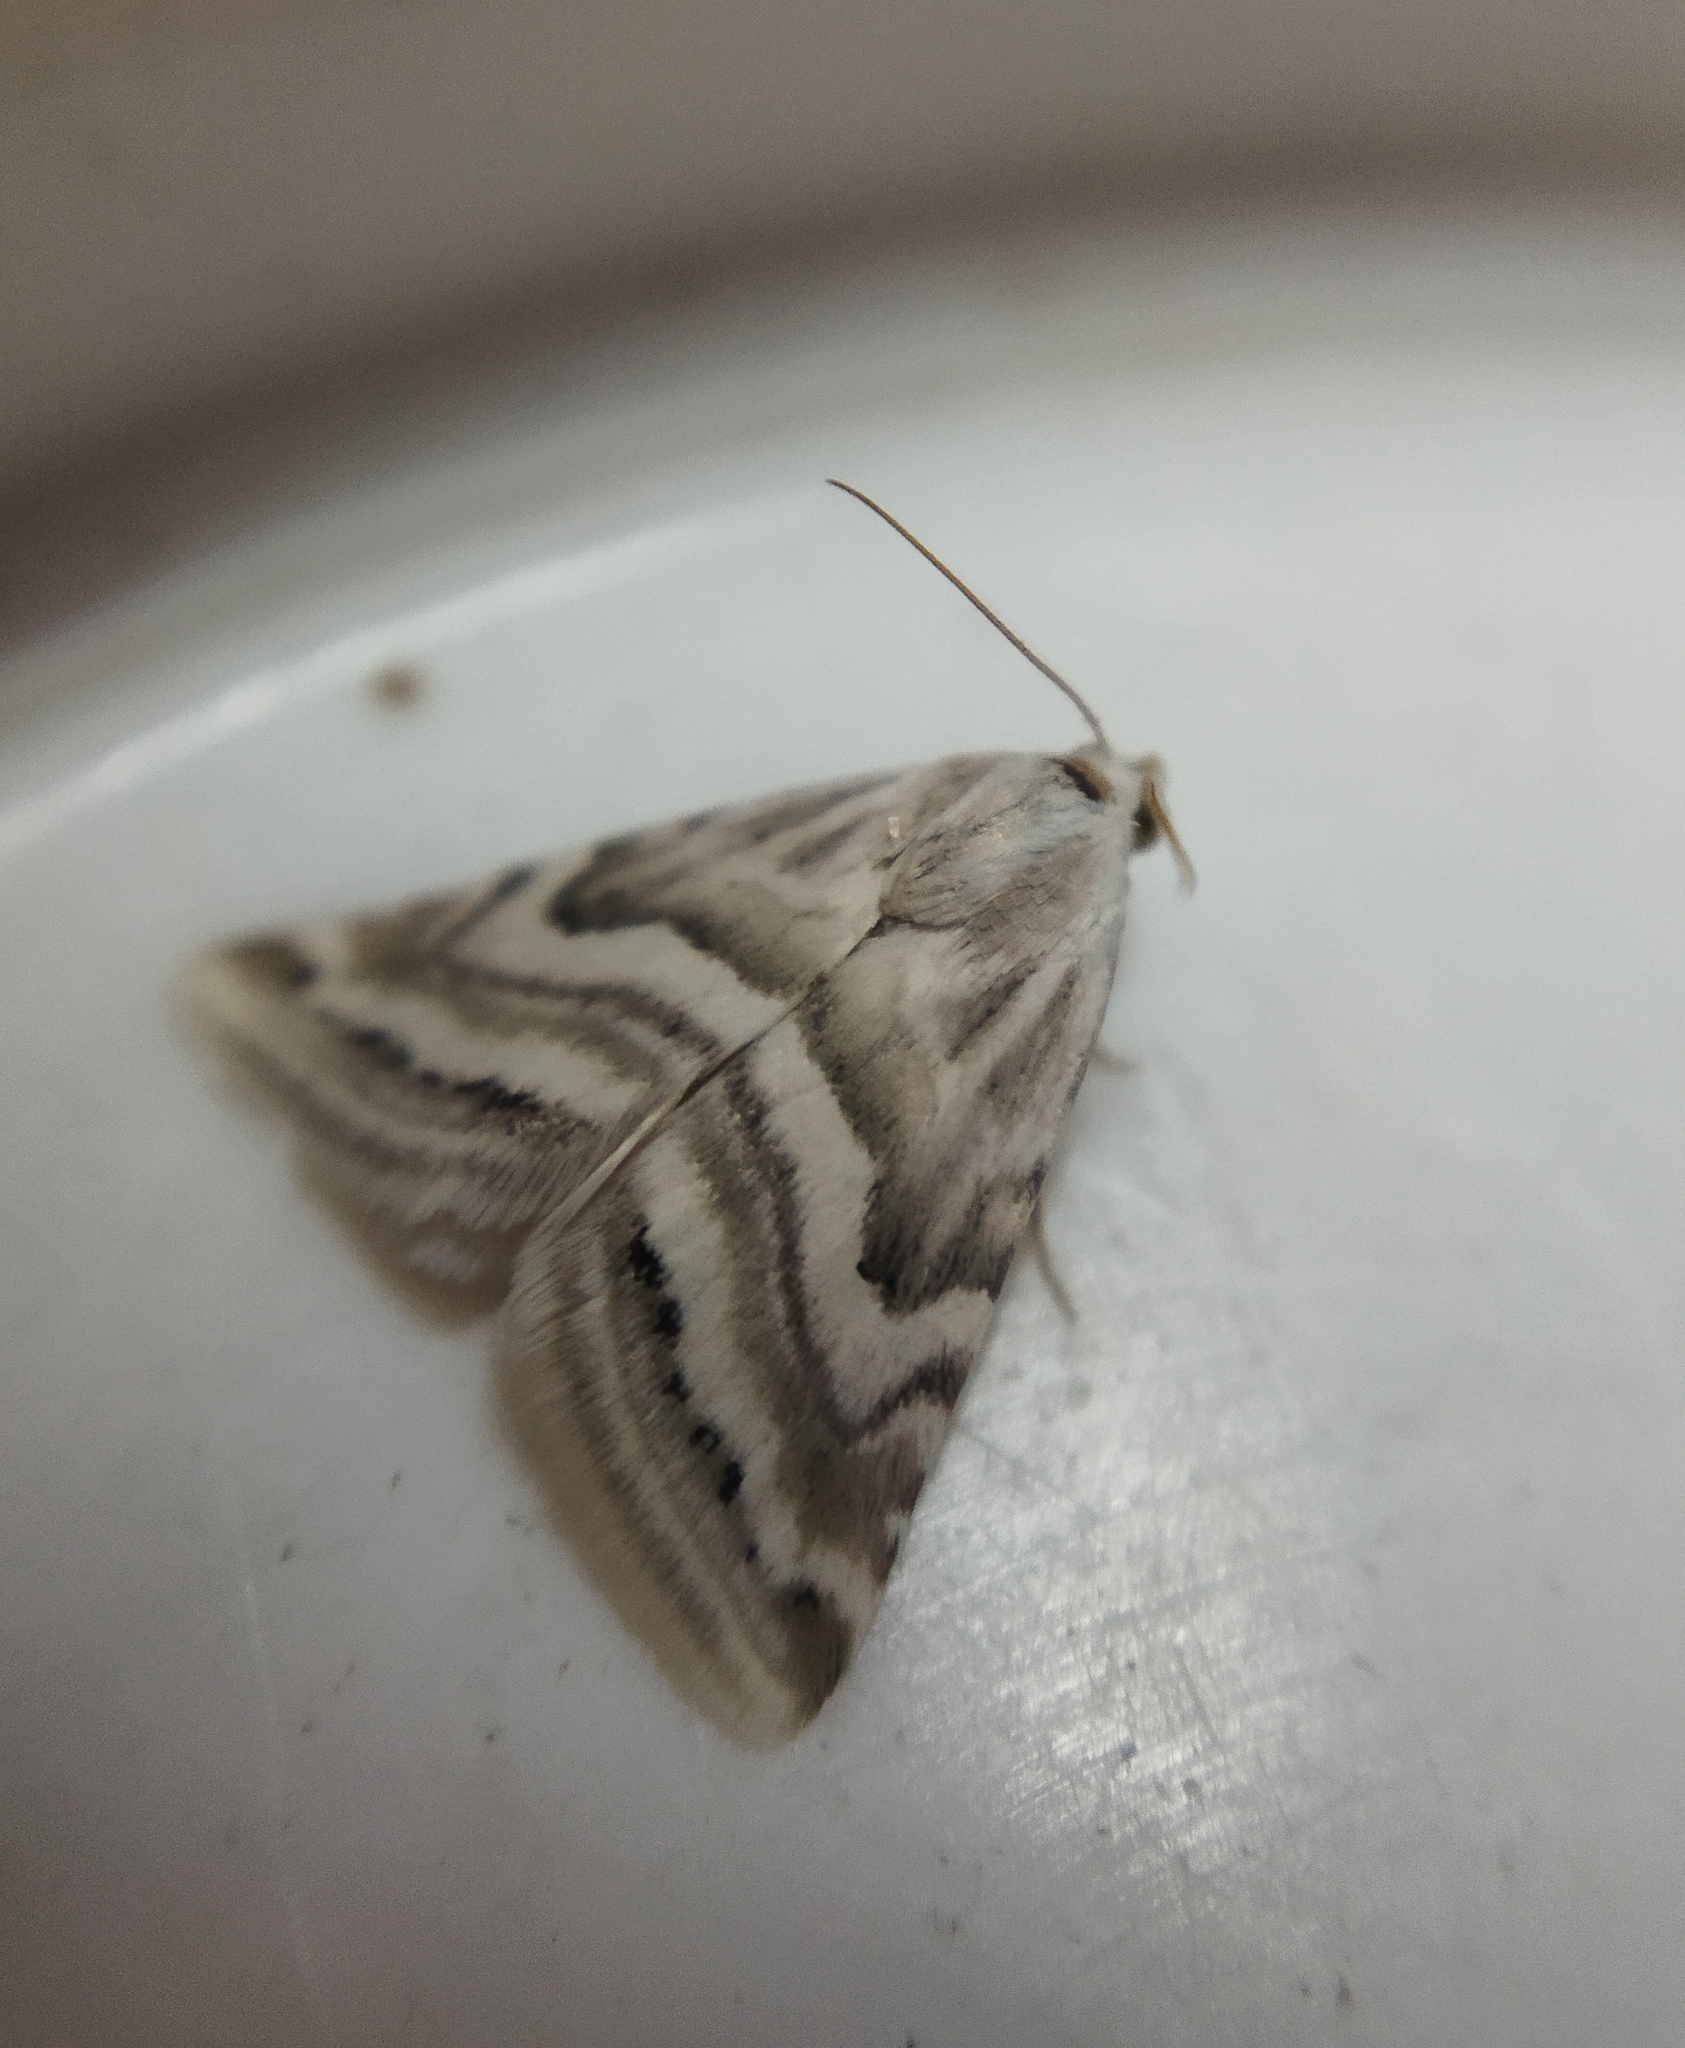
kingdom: Animalia
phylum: Arthropoda
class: Insecta
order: Lepidoptera
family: Noctuidae
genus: Eublemma
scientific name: Eublemma pusilla
